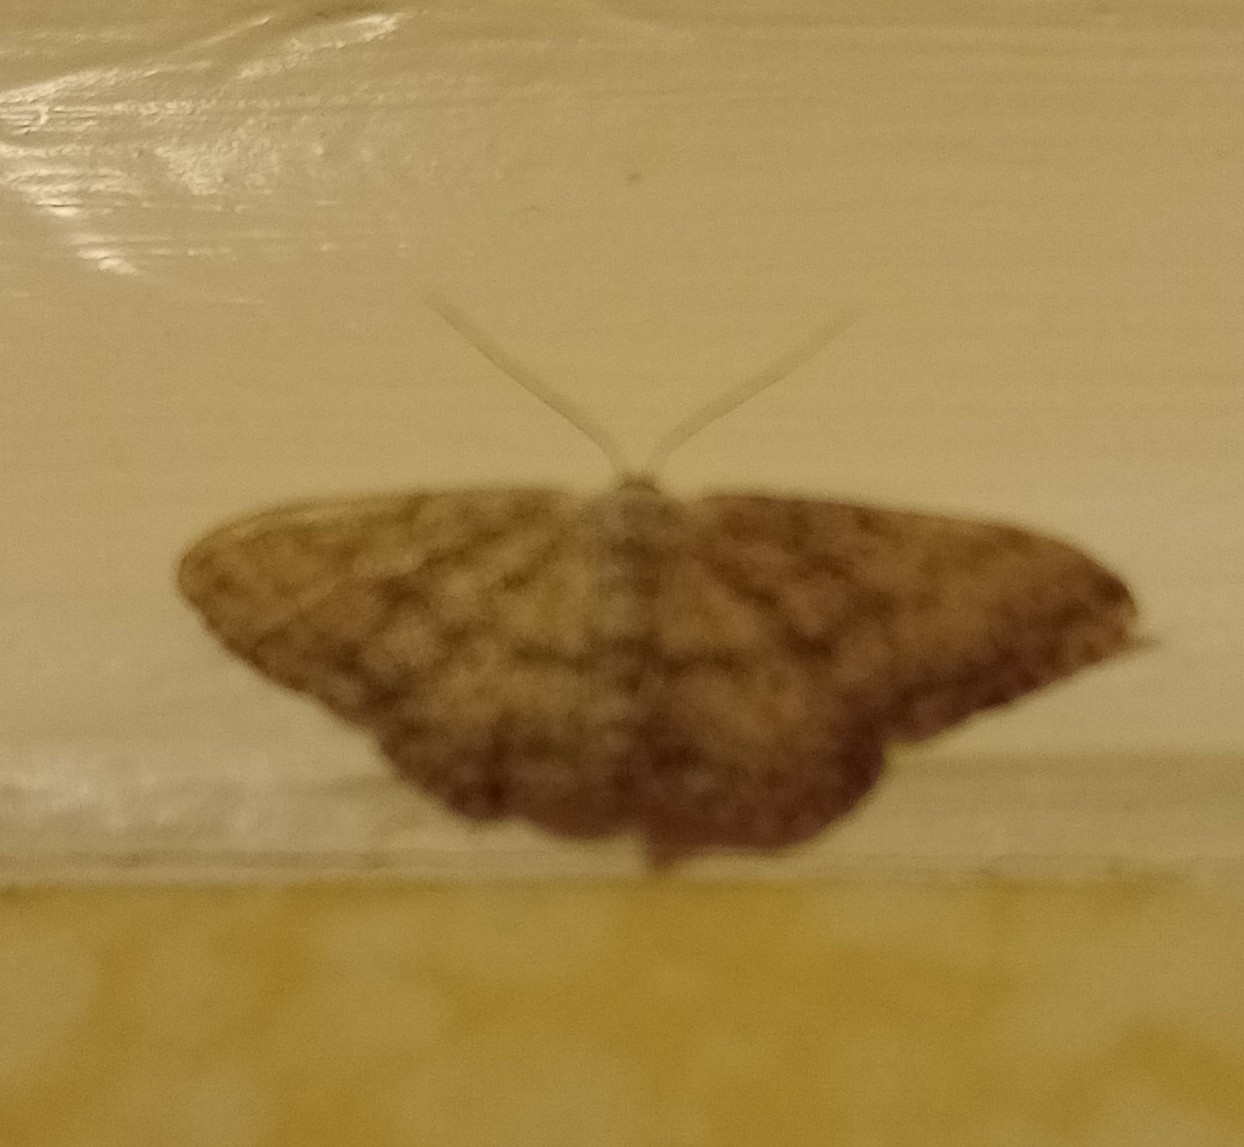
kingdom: Animalia
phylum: Arthropoda
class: Insecta
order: Lepidoptera
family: Geometridae
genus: Idaea
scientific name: Idaea seriata
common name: Small dusty wave
